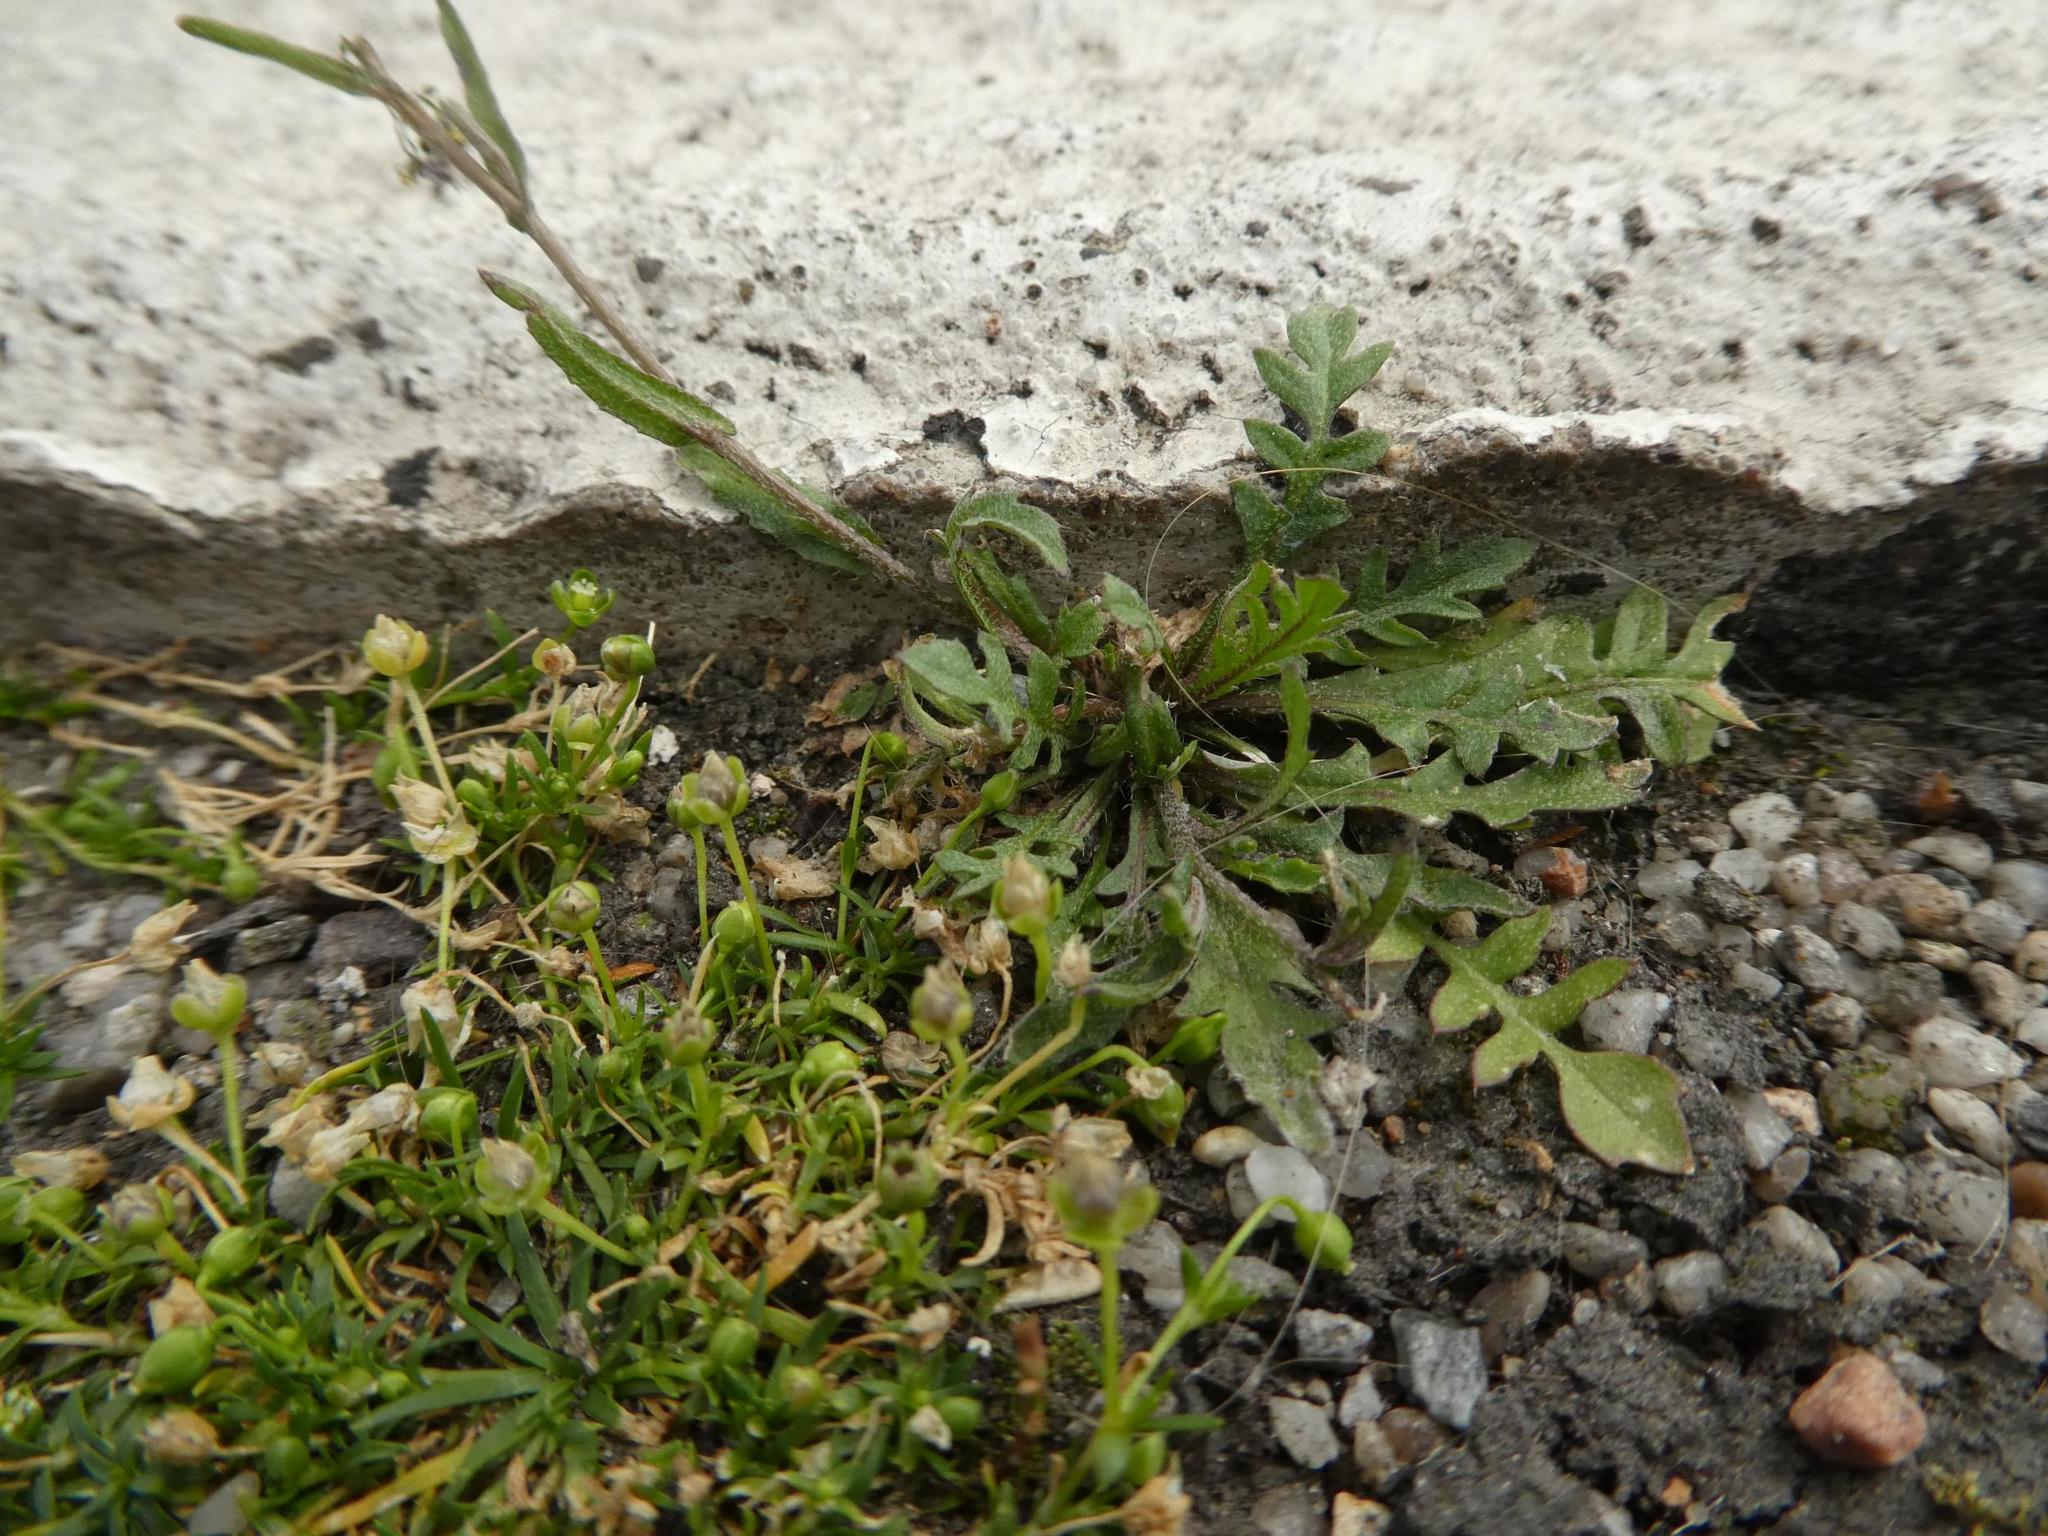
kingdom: Plantae
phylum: Tracheophyta
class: Magnoliopsida
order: Brassicales
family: Brassicaceae
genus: Capsella
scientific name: Capsella bursa-pastoris
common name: Shepherd's purse
